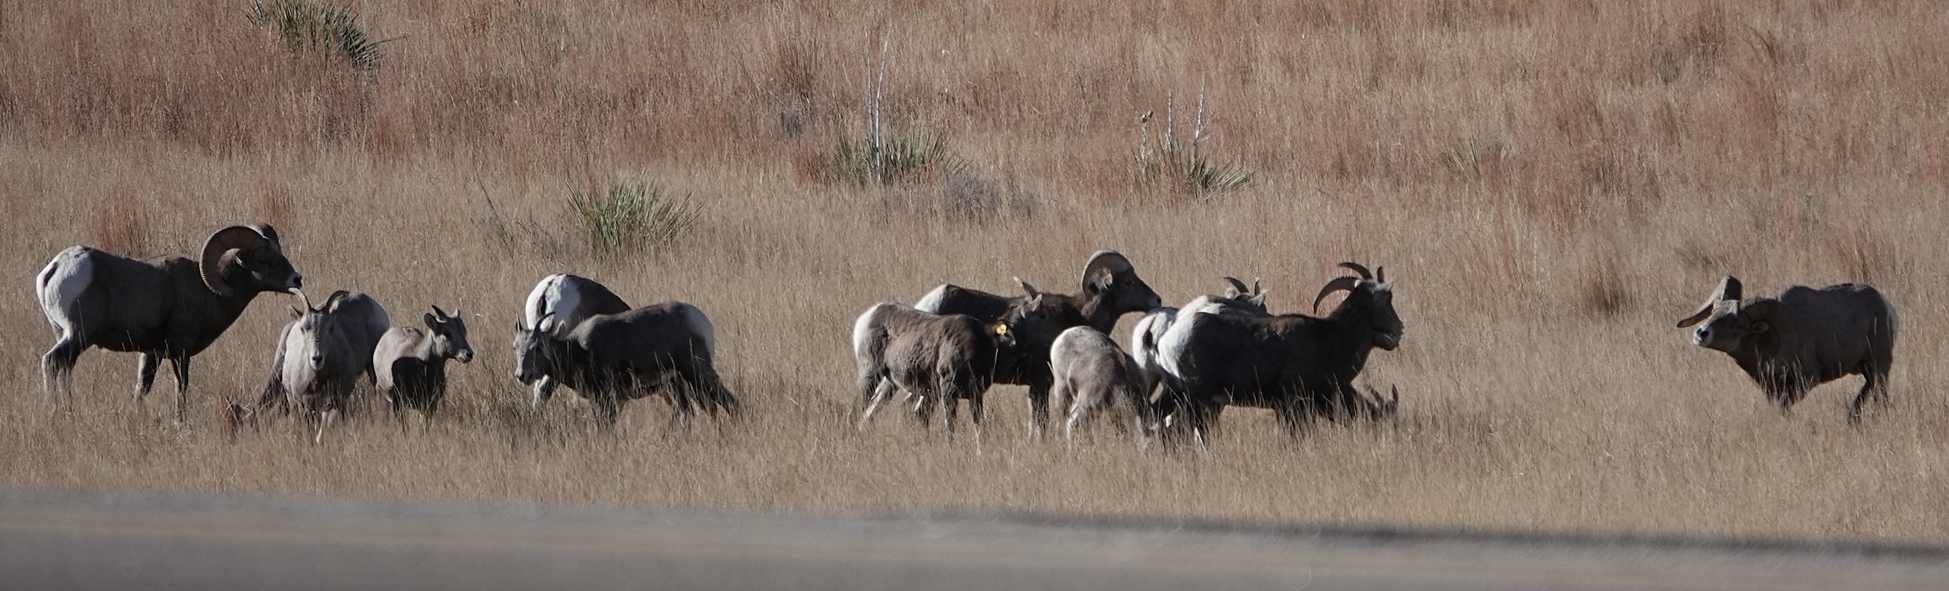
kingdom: Animalia
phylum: Chordata
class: Mammalia
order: Artiodactyla
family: Bovidae
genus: Ovis
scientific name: Ovis canadensis
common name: Bighorn sheep
